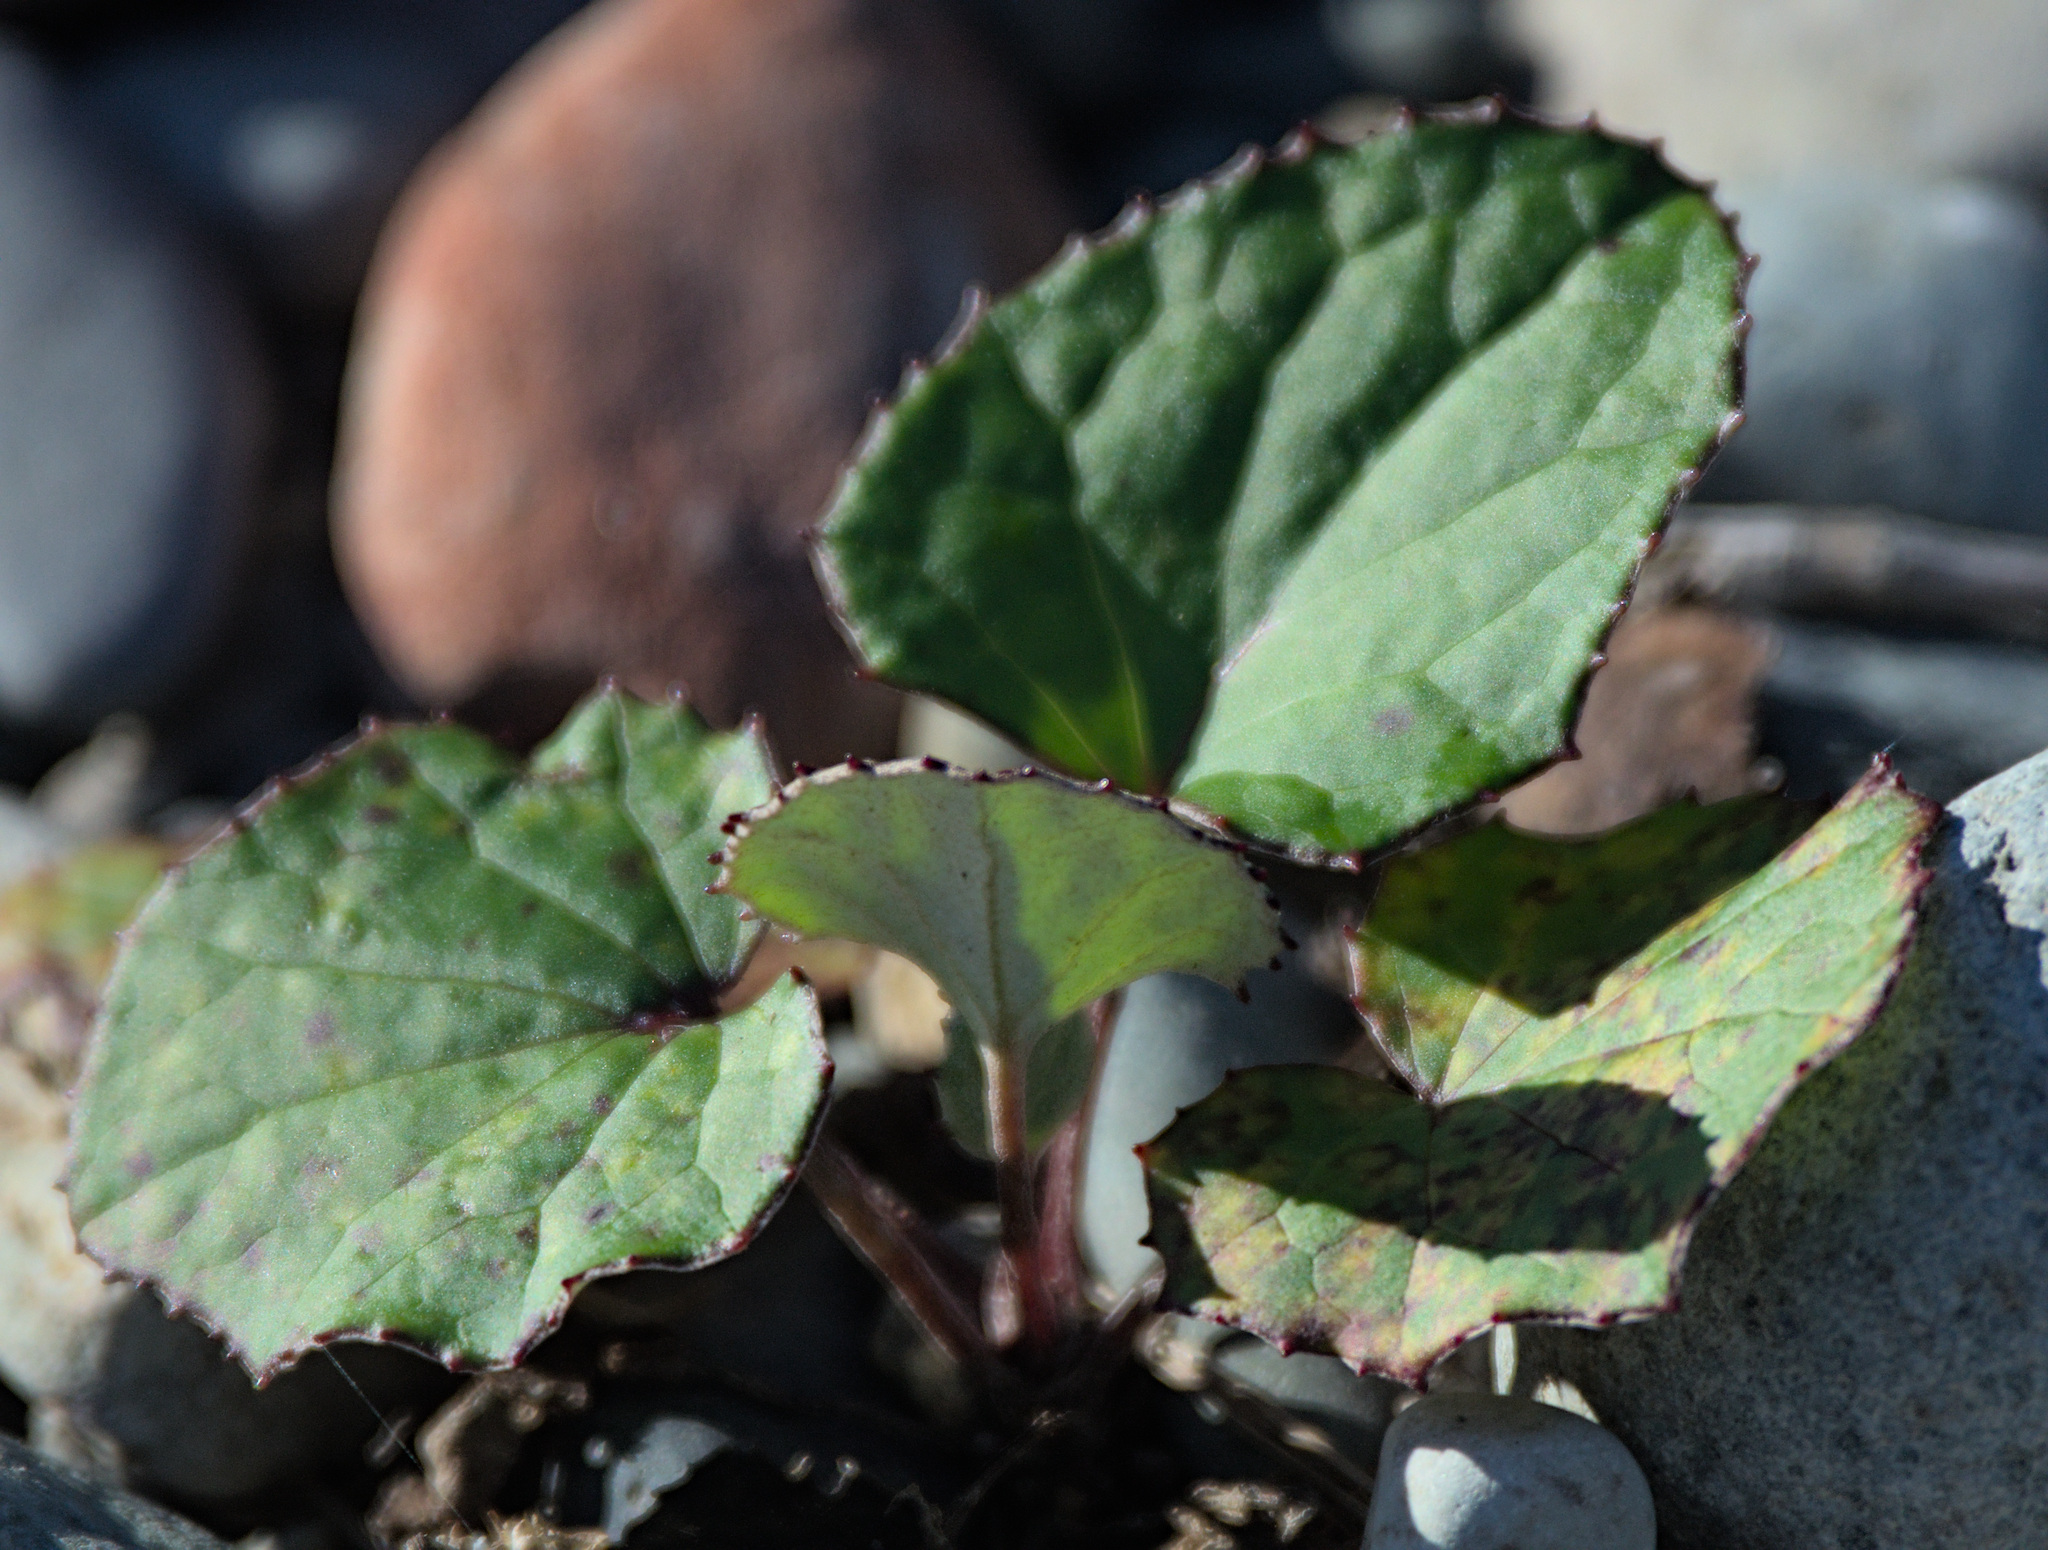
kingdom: Plantae
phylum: Tracheophyta
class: Magnoliopsida
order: Asterales
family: Asteraceae
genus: Tussilago
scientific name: Tussilago farfara
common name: Coltsfoot
